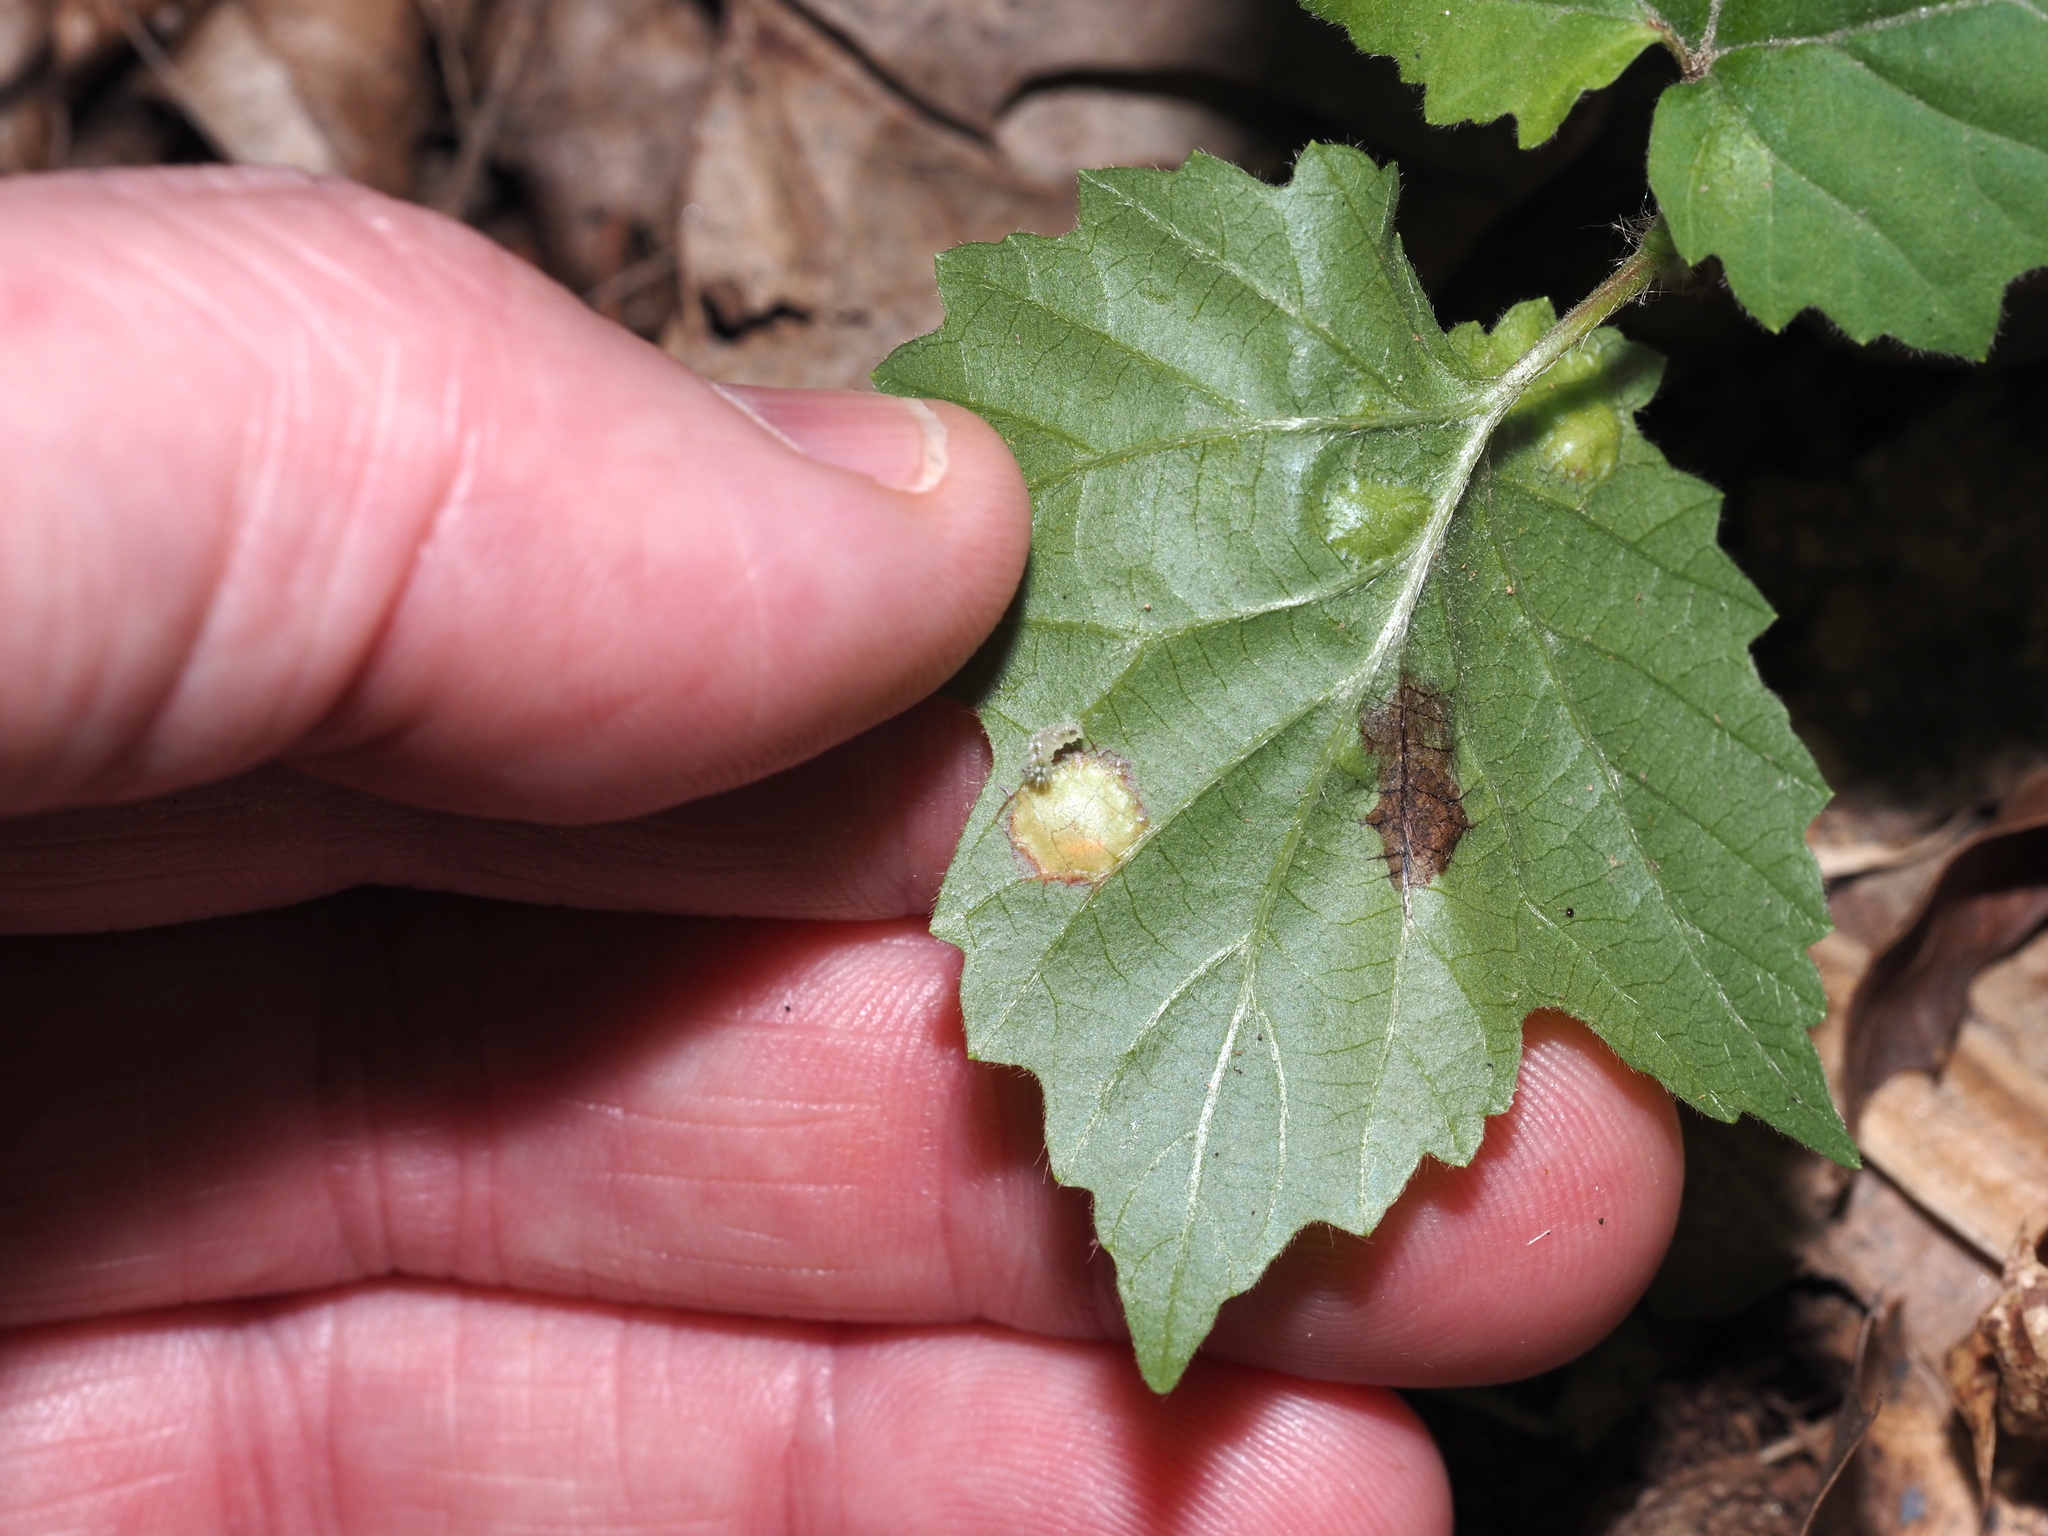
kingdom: Animalia
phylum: Arthropoda
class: Insecta
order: Diptera
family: Cecidomyiidae
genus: Sackenomyia
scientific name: Sackenomyia commota
